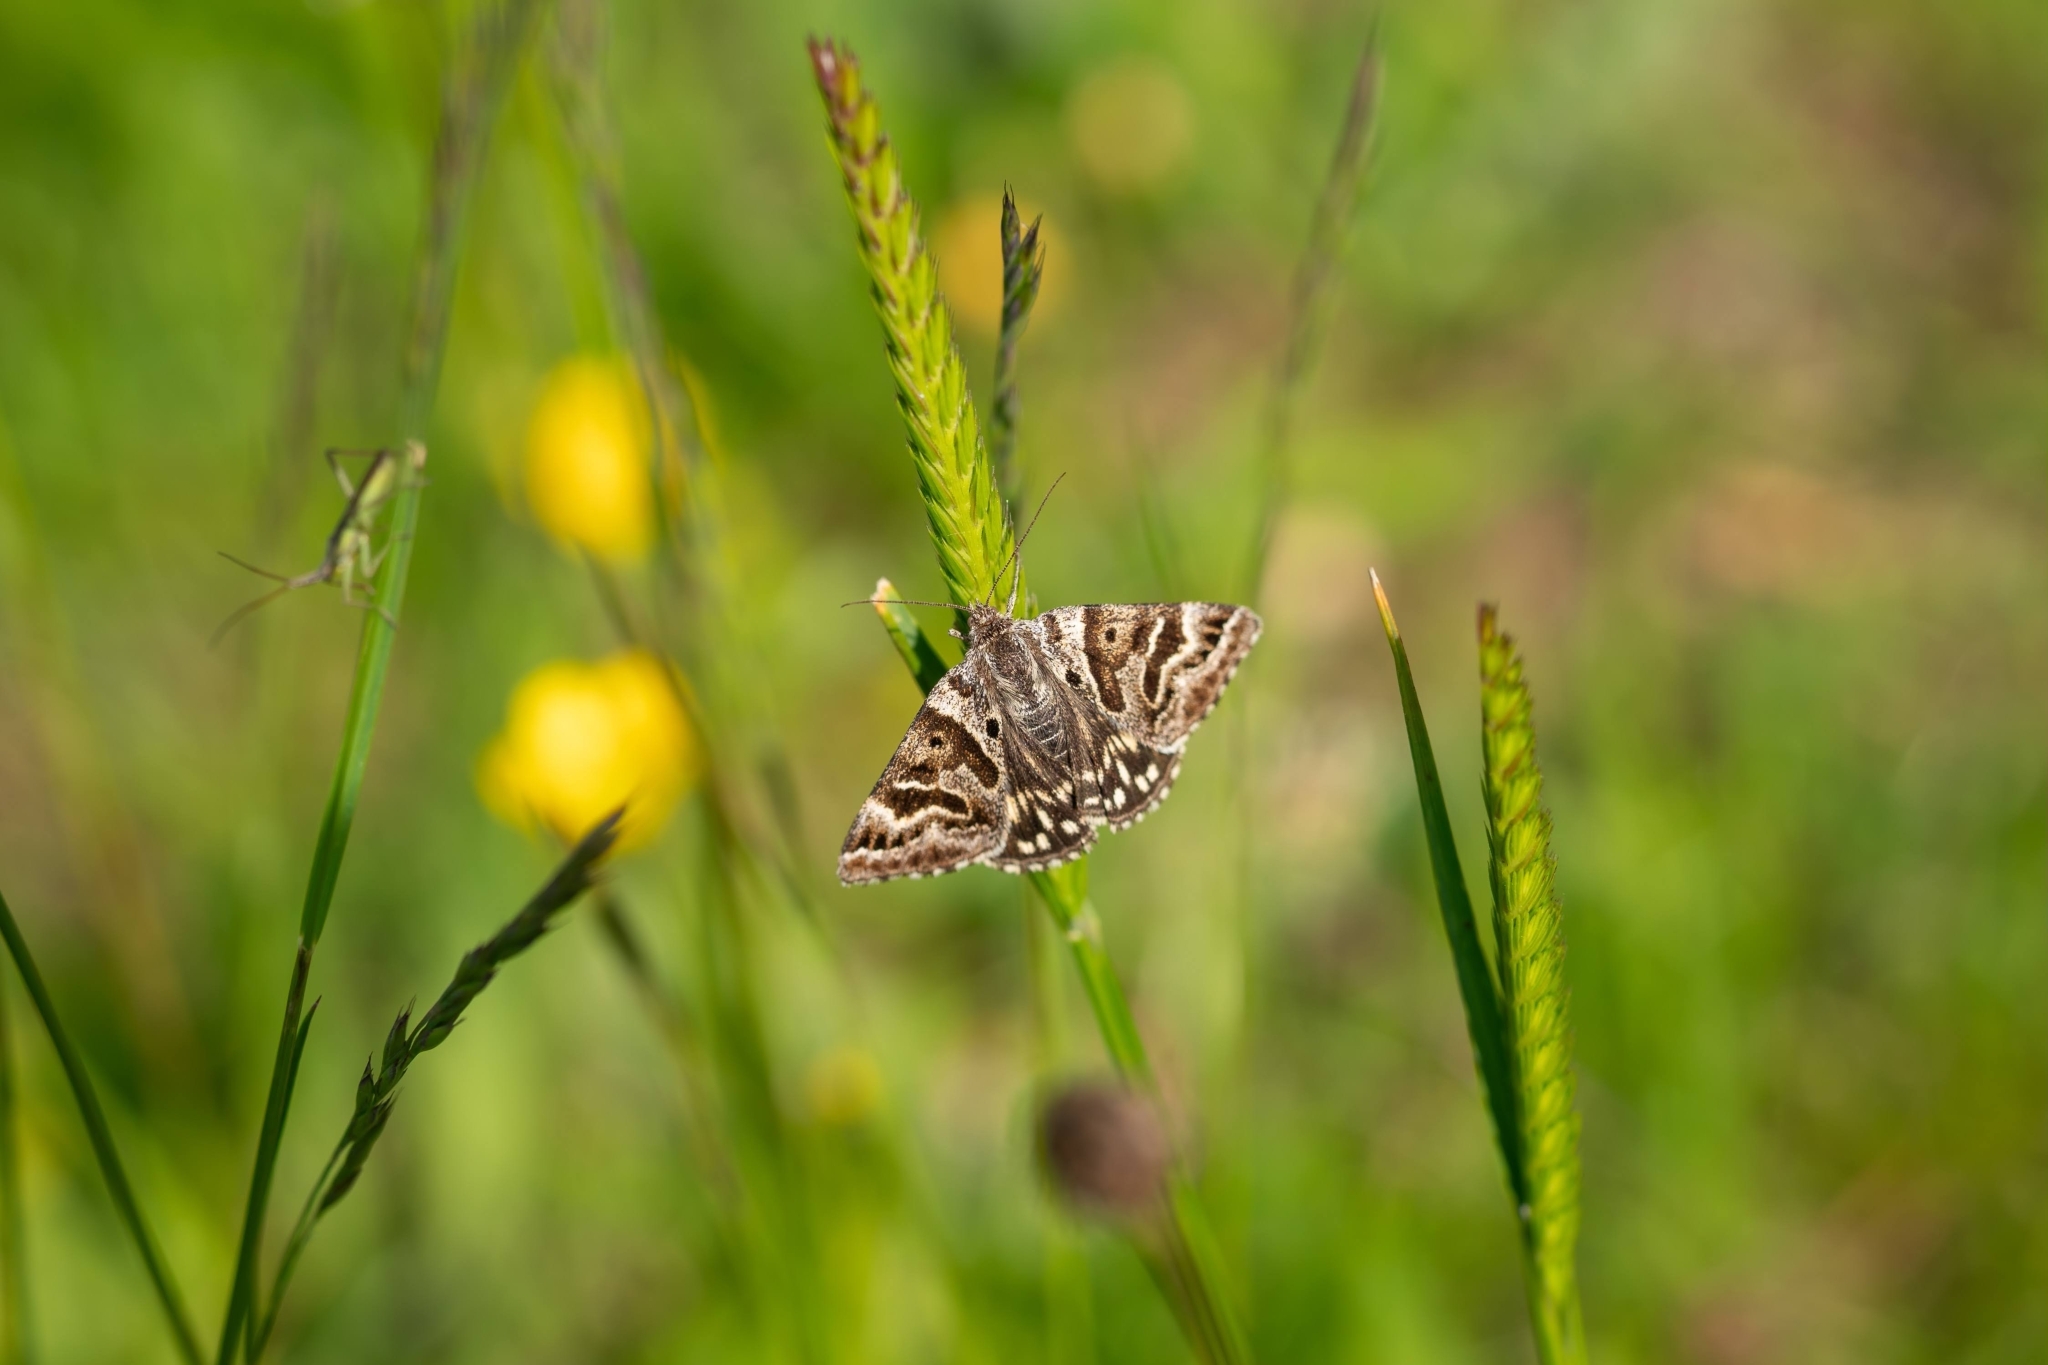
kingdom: Animalia
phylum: Arthropoda
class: Insecta
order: Lepidoptera
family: Erebidae
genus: Callistege
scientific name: Callistege mi
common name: Mother shipton
